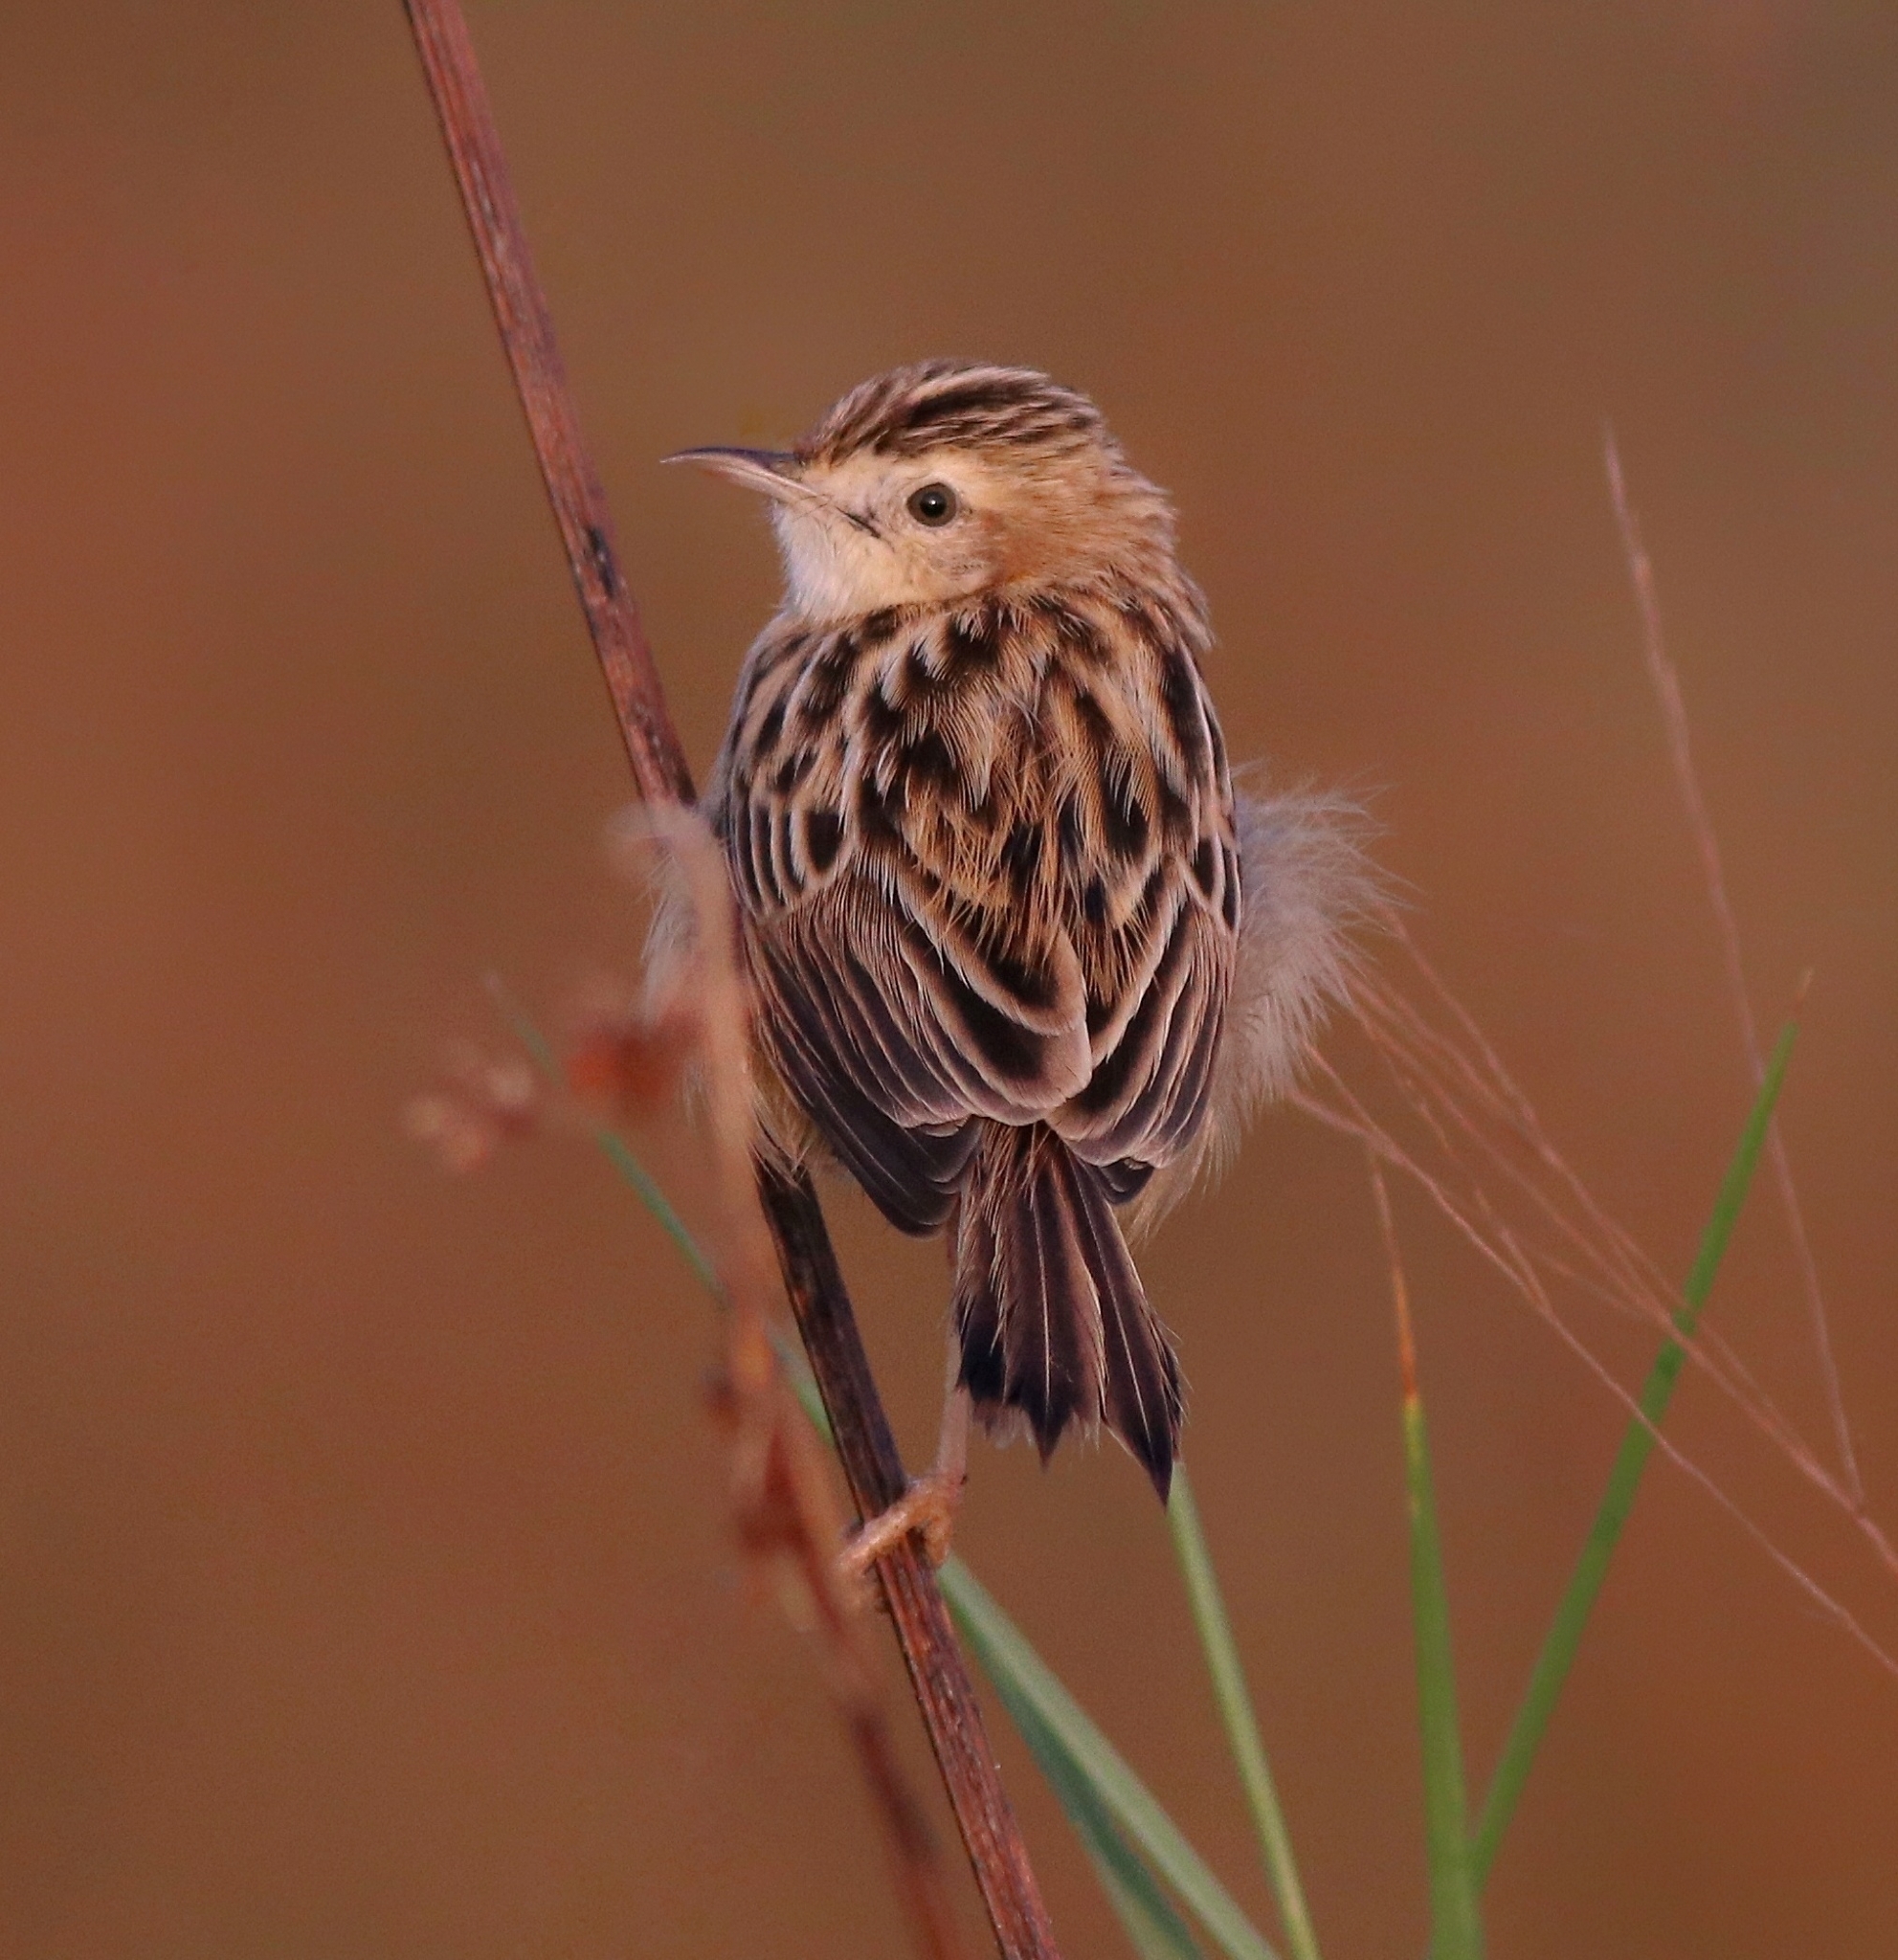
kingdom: Animalia
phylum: Chordata
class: Aves
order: Passeriformes
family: Cisticolidae
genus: Cisticola
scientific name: Cisticola juncidis
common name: Zitting cisticola
